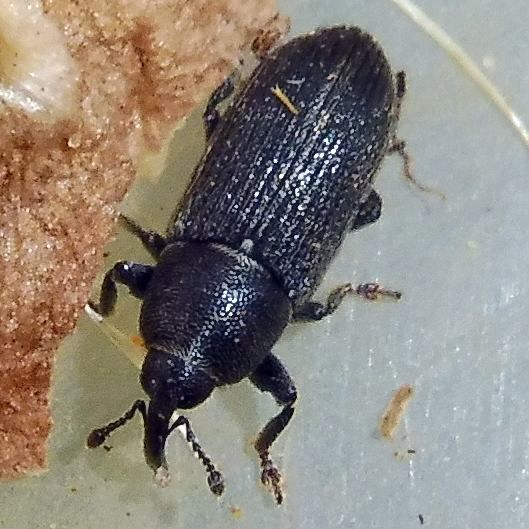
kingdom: Animalia
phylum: Arthropoda
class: Insecta
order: Coleoptera
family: Curculionidae
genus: Mecinus
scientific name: Mecinus pyraster
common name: Weevil
